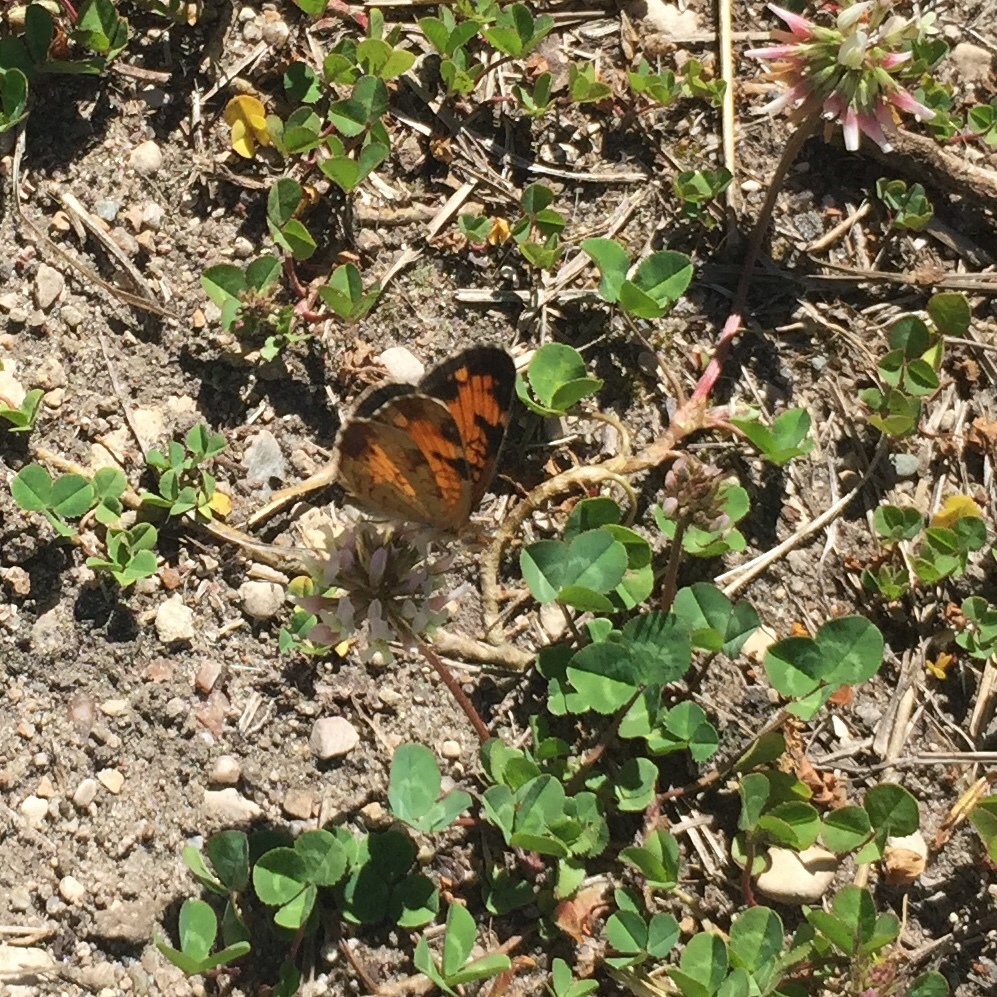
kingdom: Animalia
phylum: Arthropoda
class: Insecta
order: Lepidoptera
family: Nymphalidae
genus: Phyciodes
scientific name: Phyciodes tharos
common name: Pearl crescent
